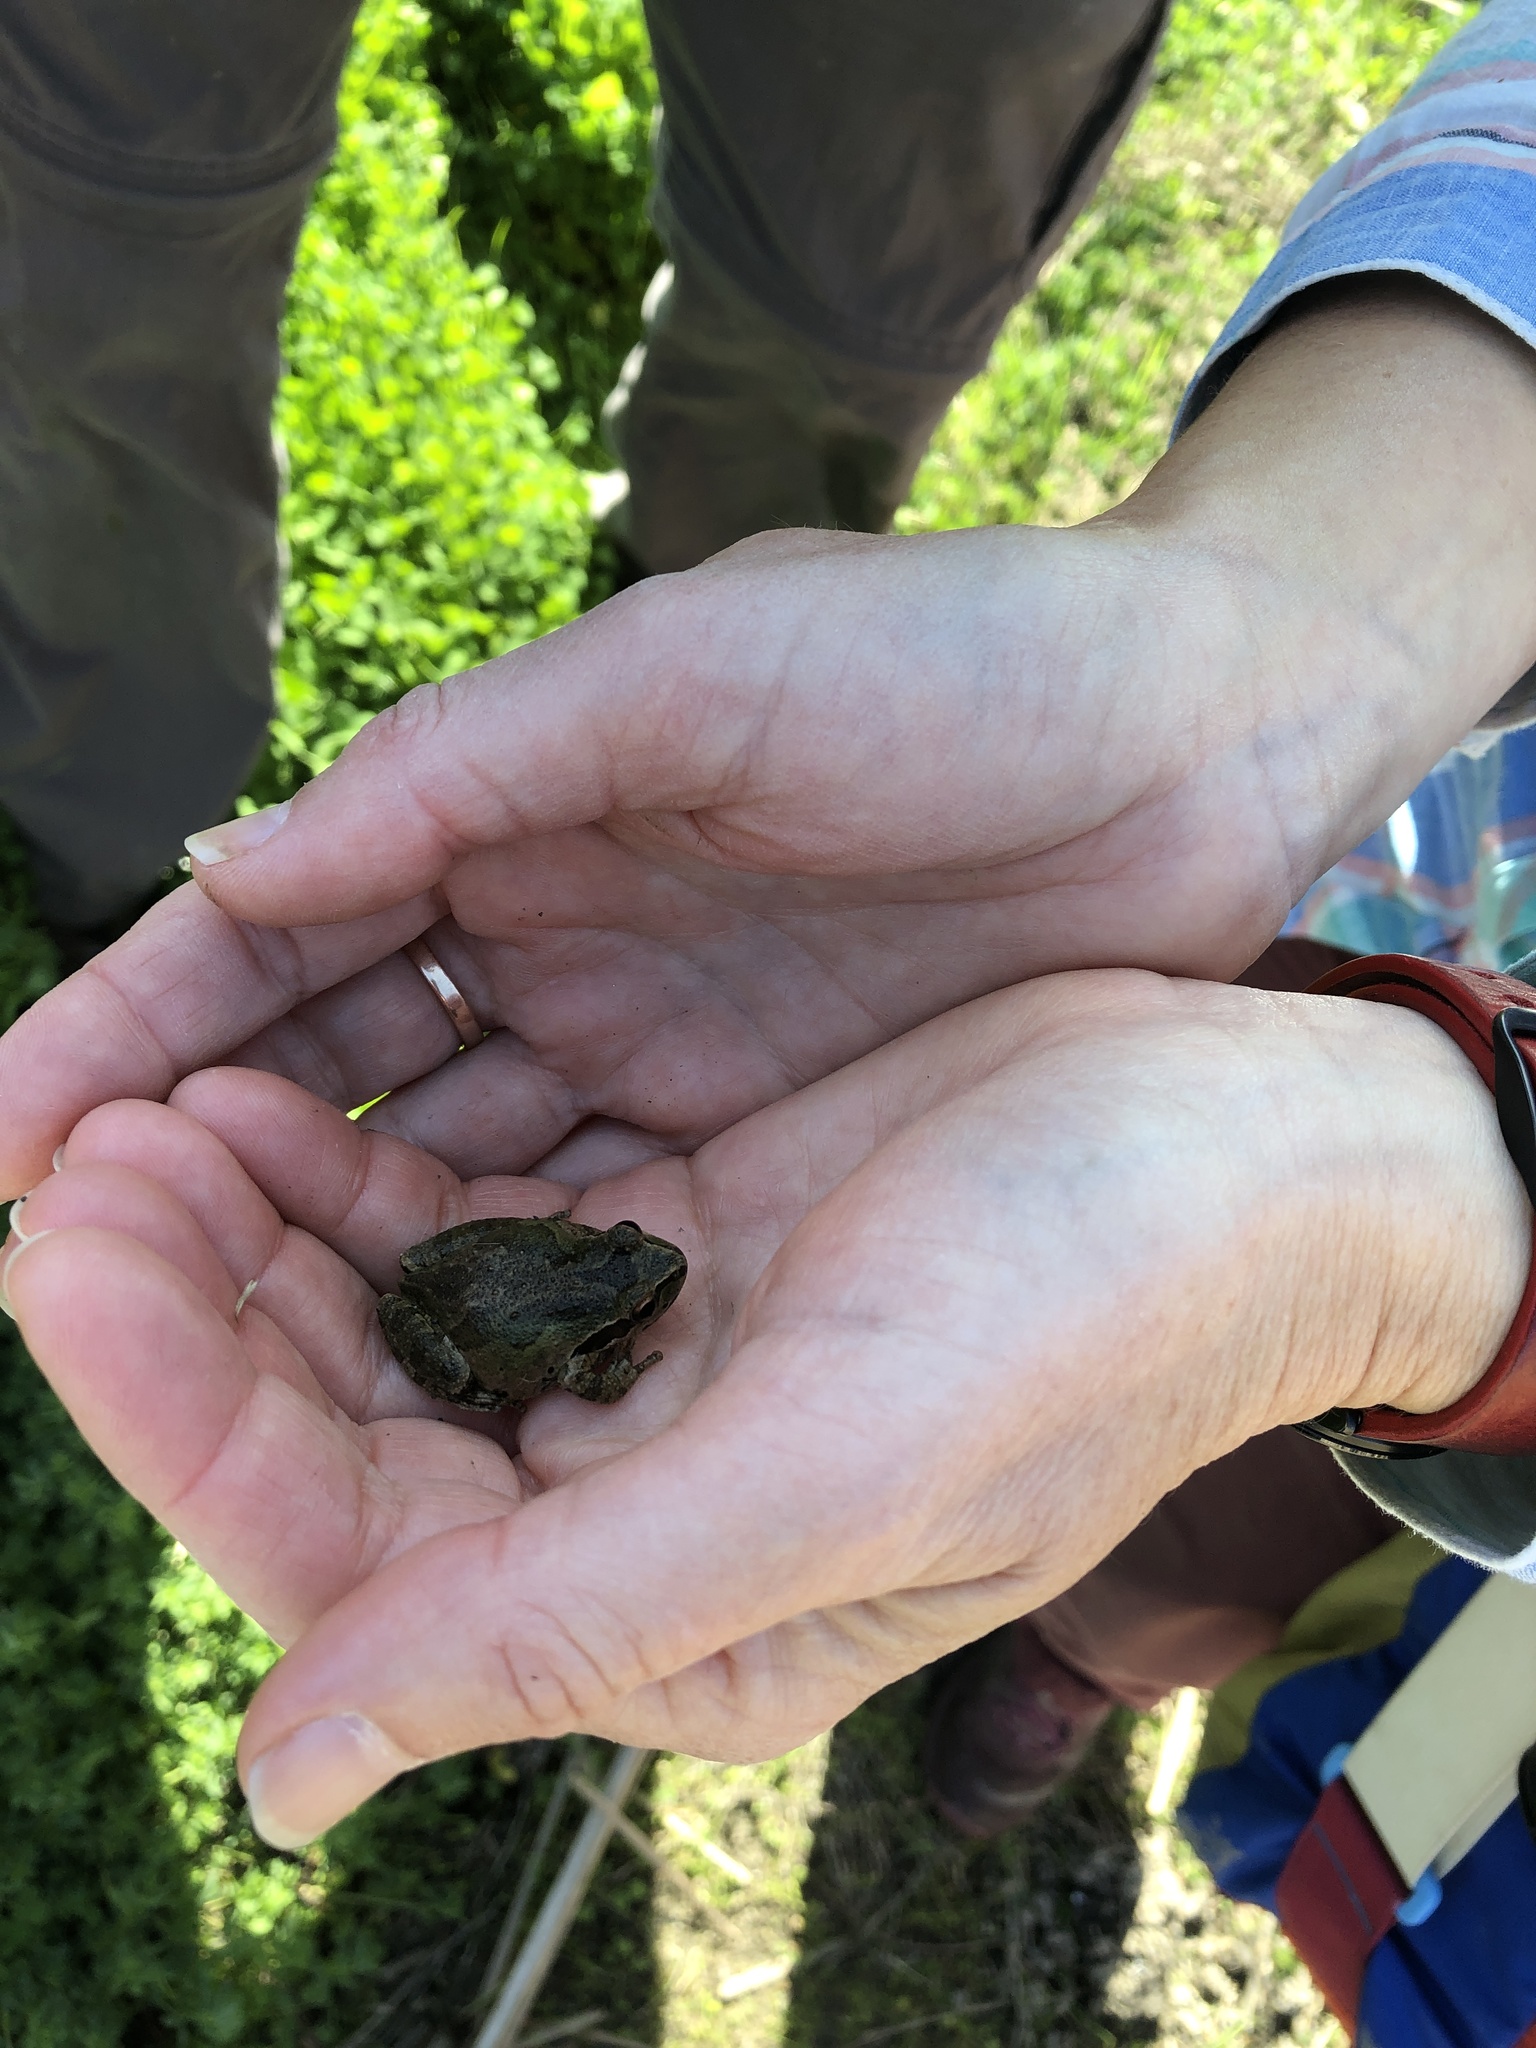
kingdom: Animalia
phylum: Chordata
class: Amphibia
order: Anura
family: Hylidae
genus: Pseudacris
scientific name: Pseudacris regilla
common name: Pacific chorus frog
